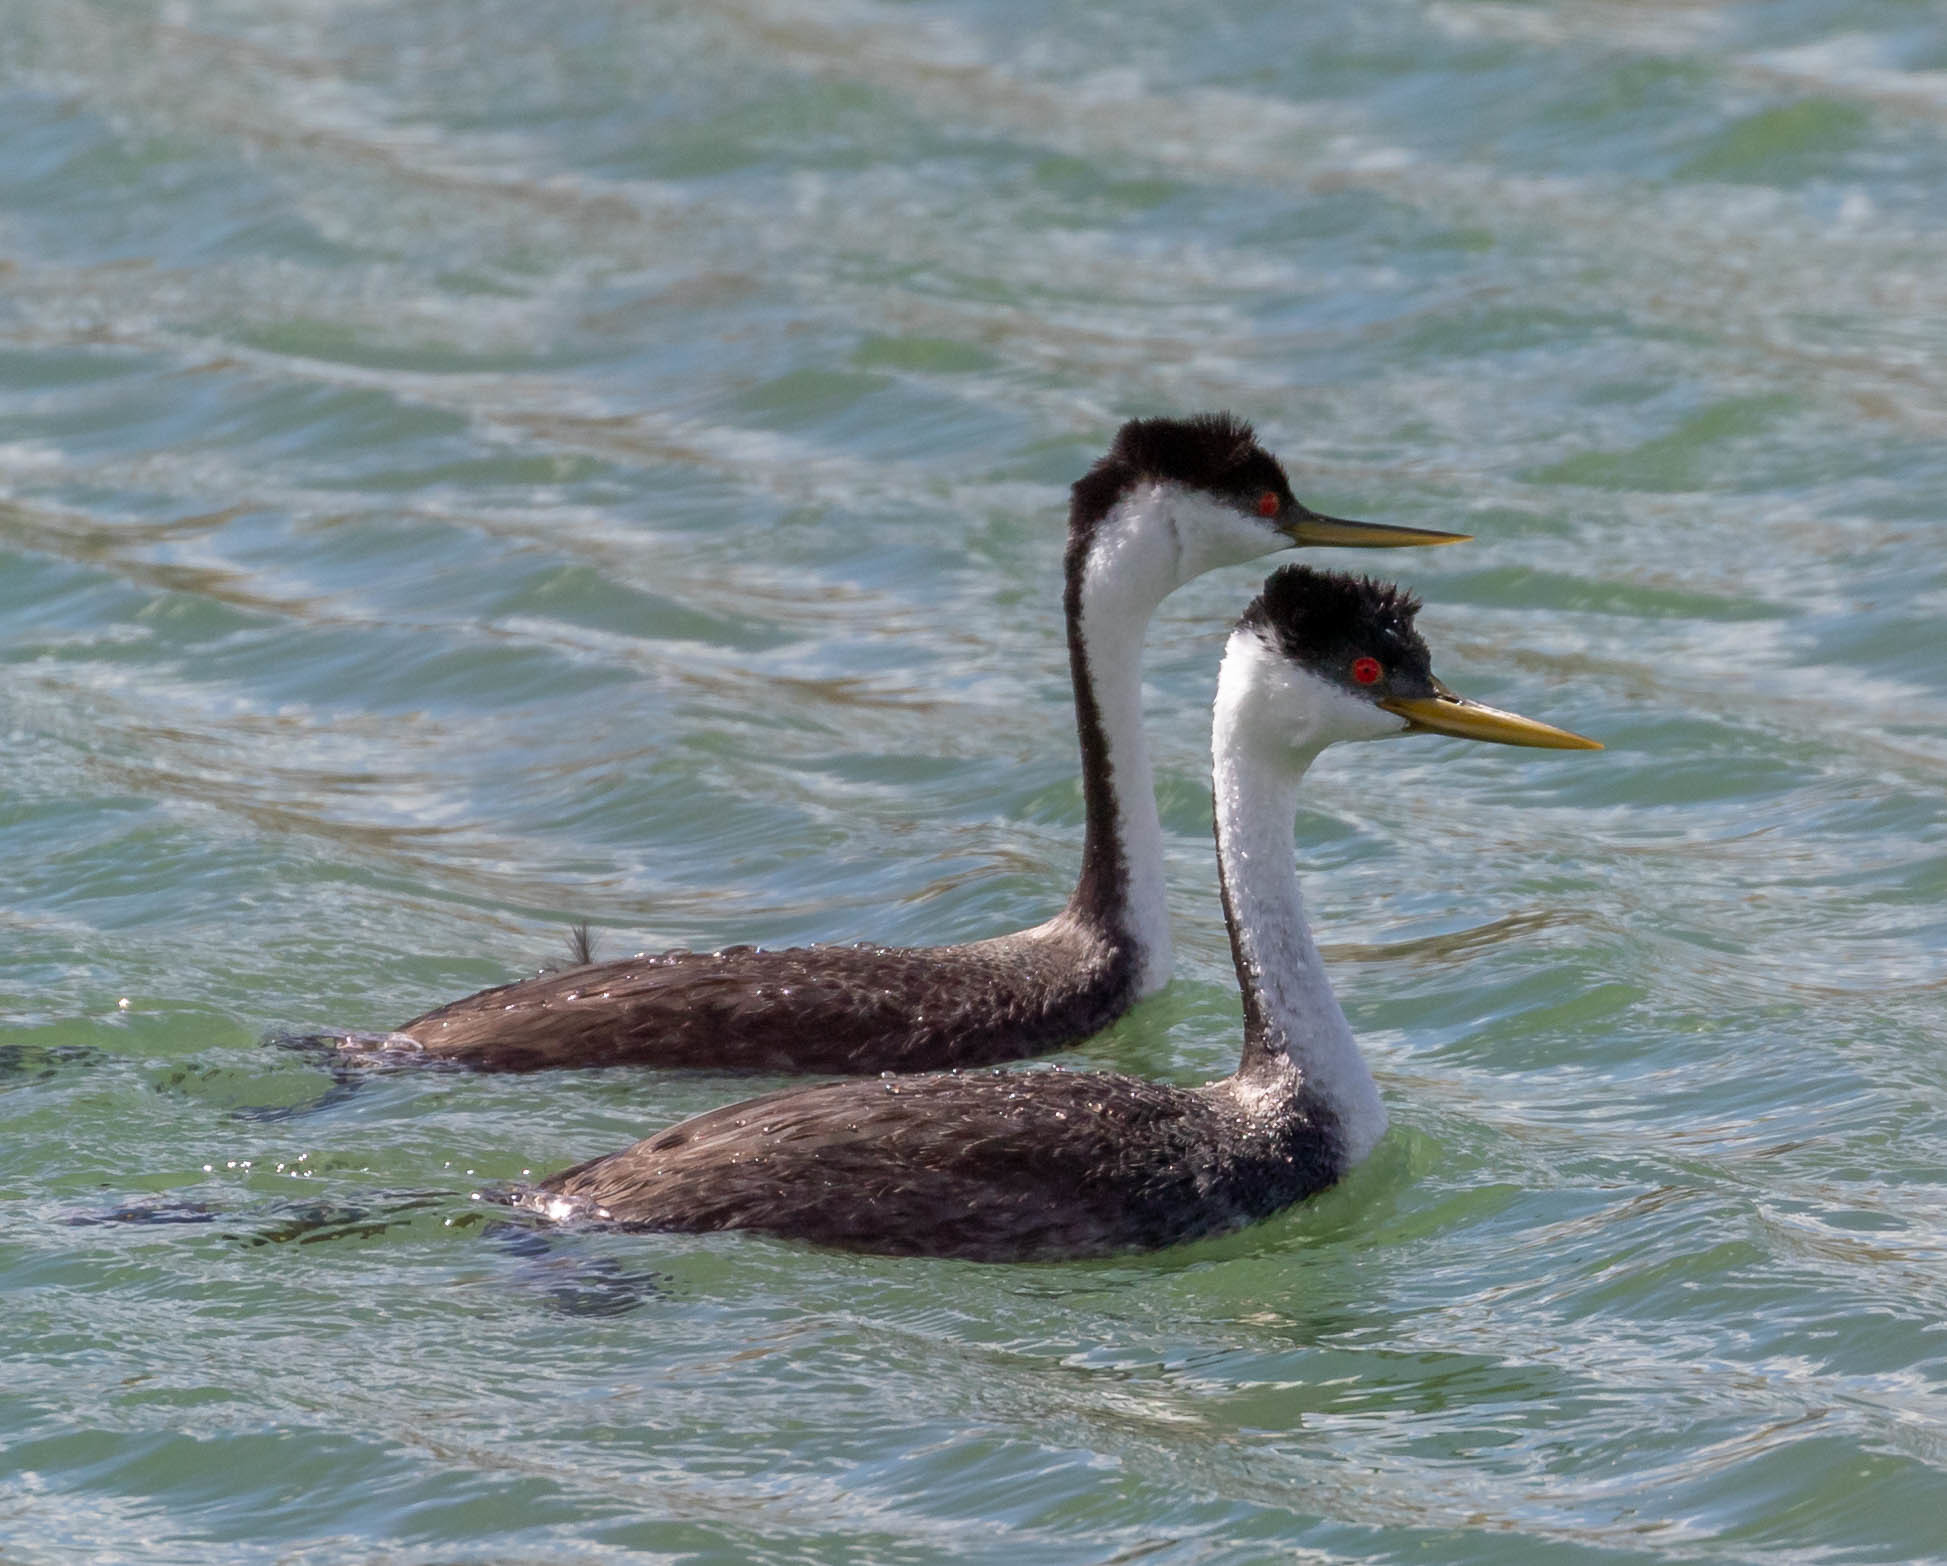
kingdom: Animalia
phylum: Chordata
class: Aves
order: Podicipediformes
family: Podicipedidae
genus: Aechmophorus
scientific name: Aechmophorus occidentalis
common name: Western grebe
